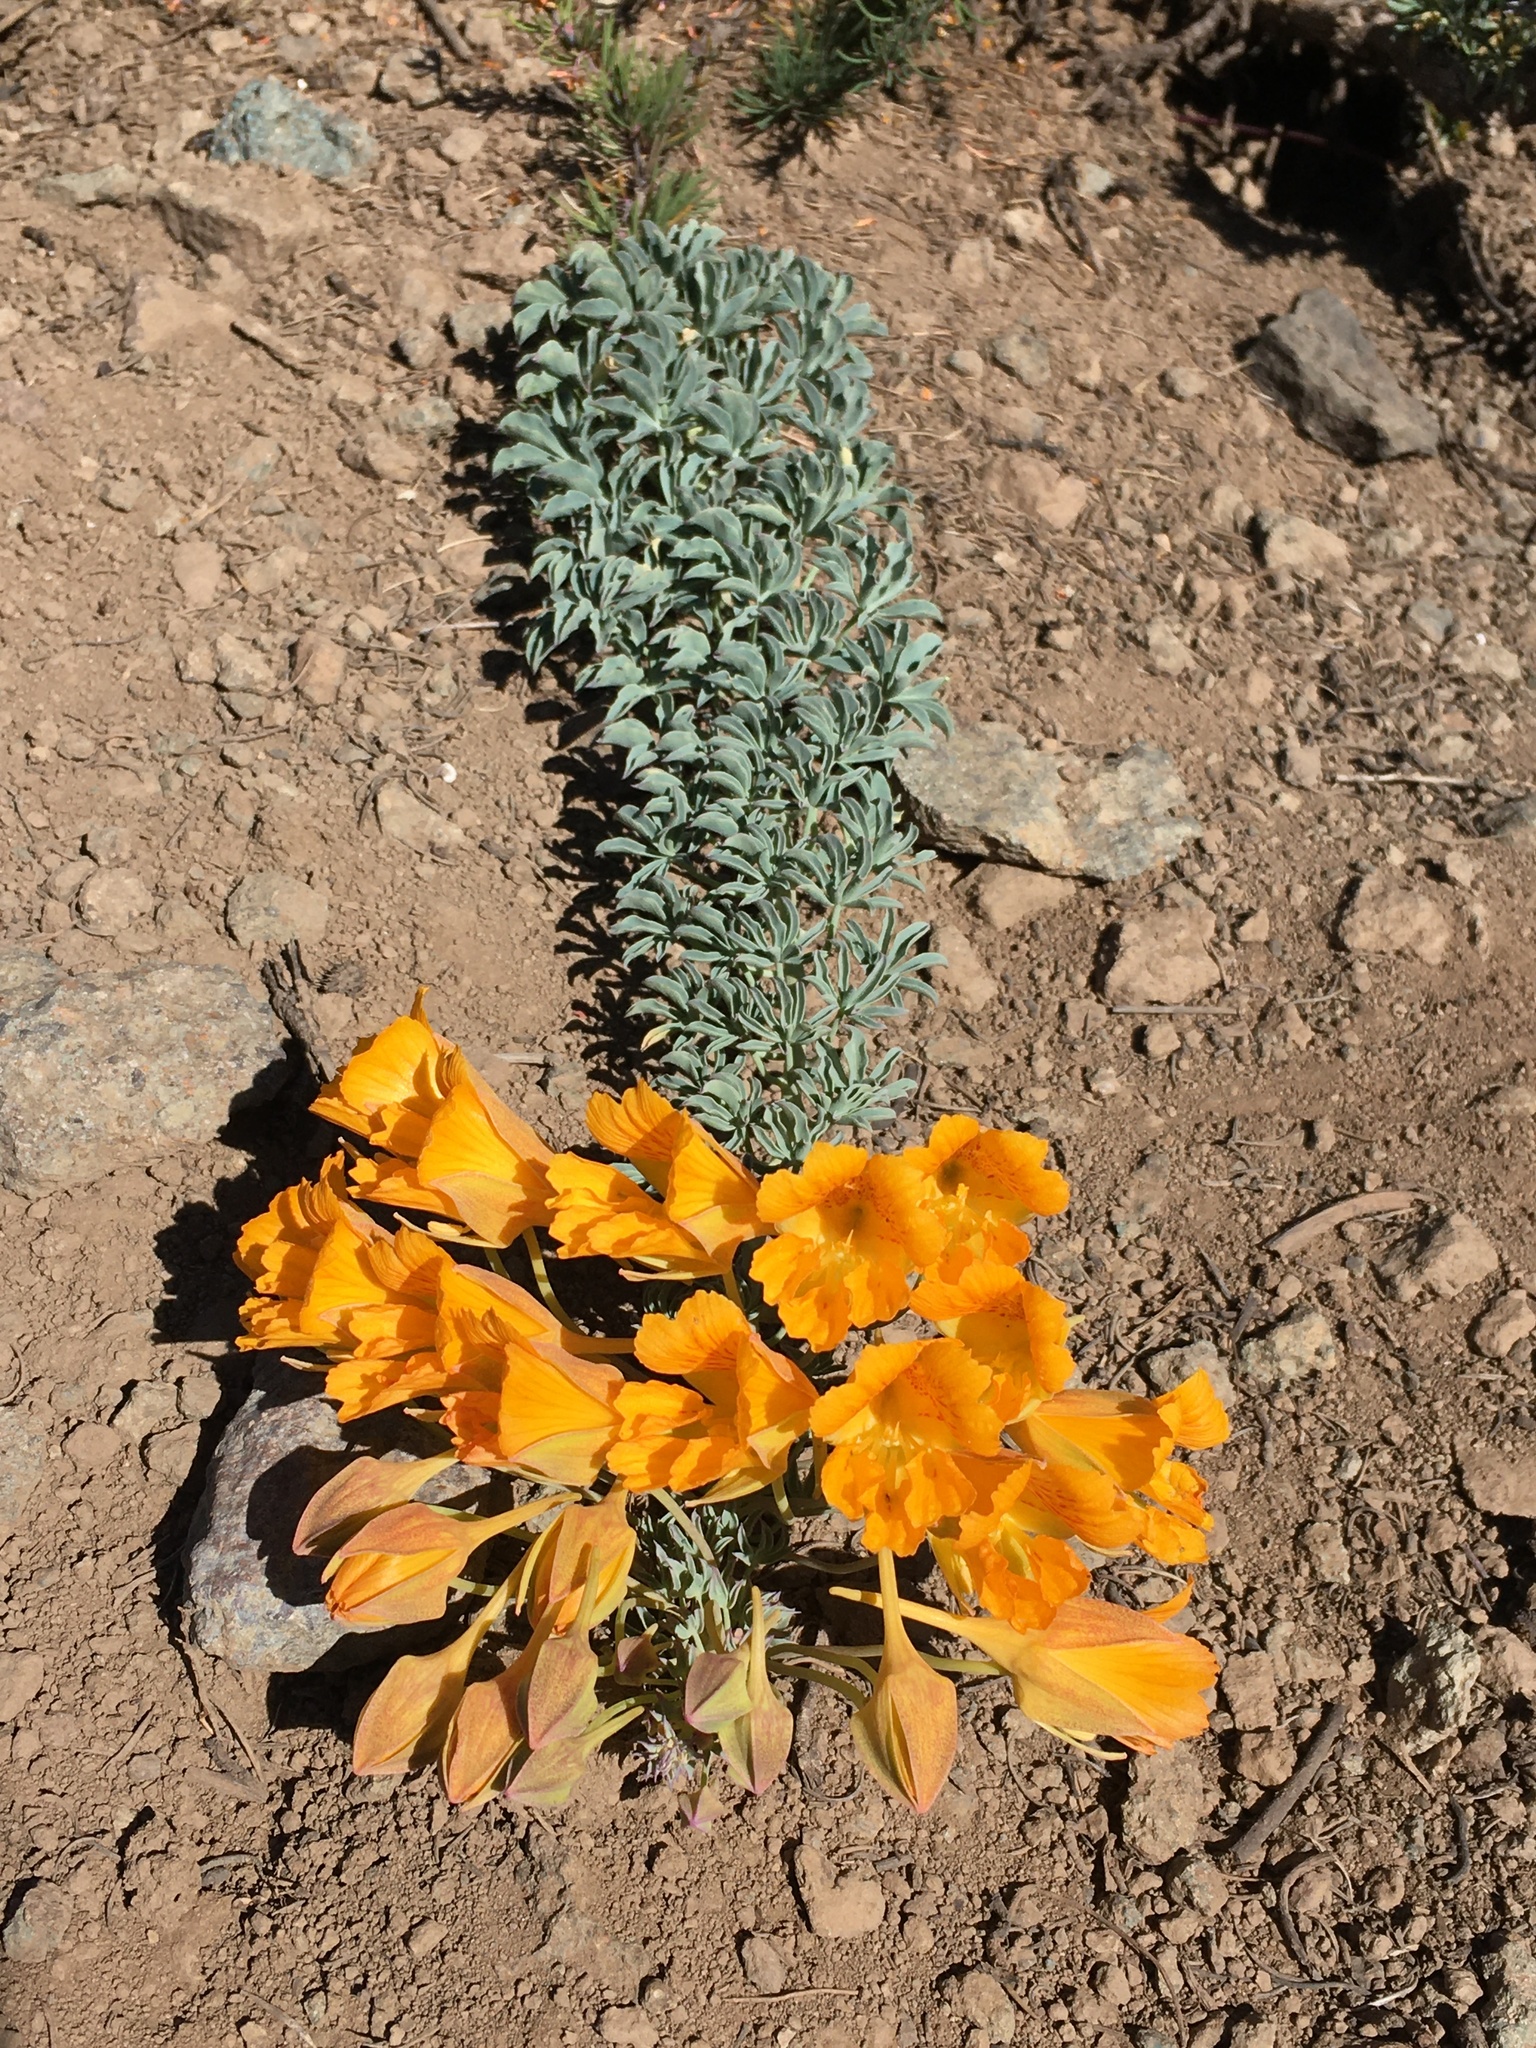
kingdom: Plantae
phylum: Tracheophyta
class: Magnoliopsida
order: Brassicales
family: Tropaeolaceae
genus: Tropaeolum
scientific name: Tropaeolum polyphyllum
